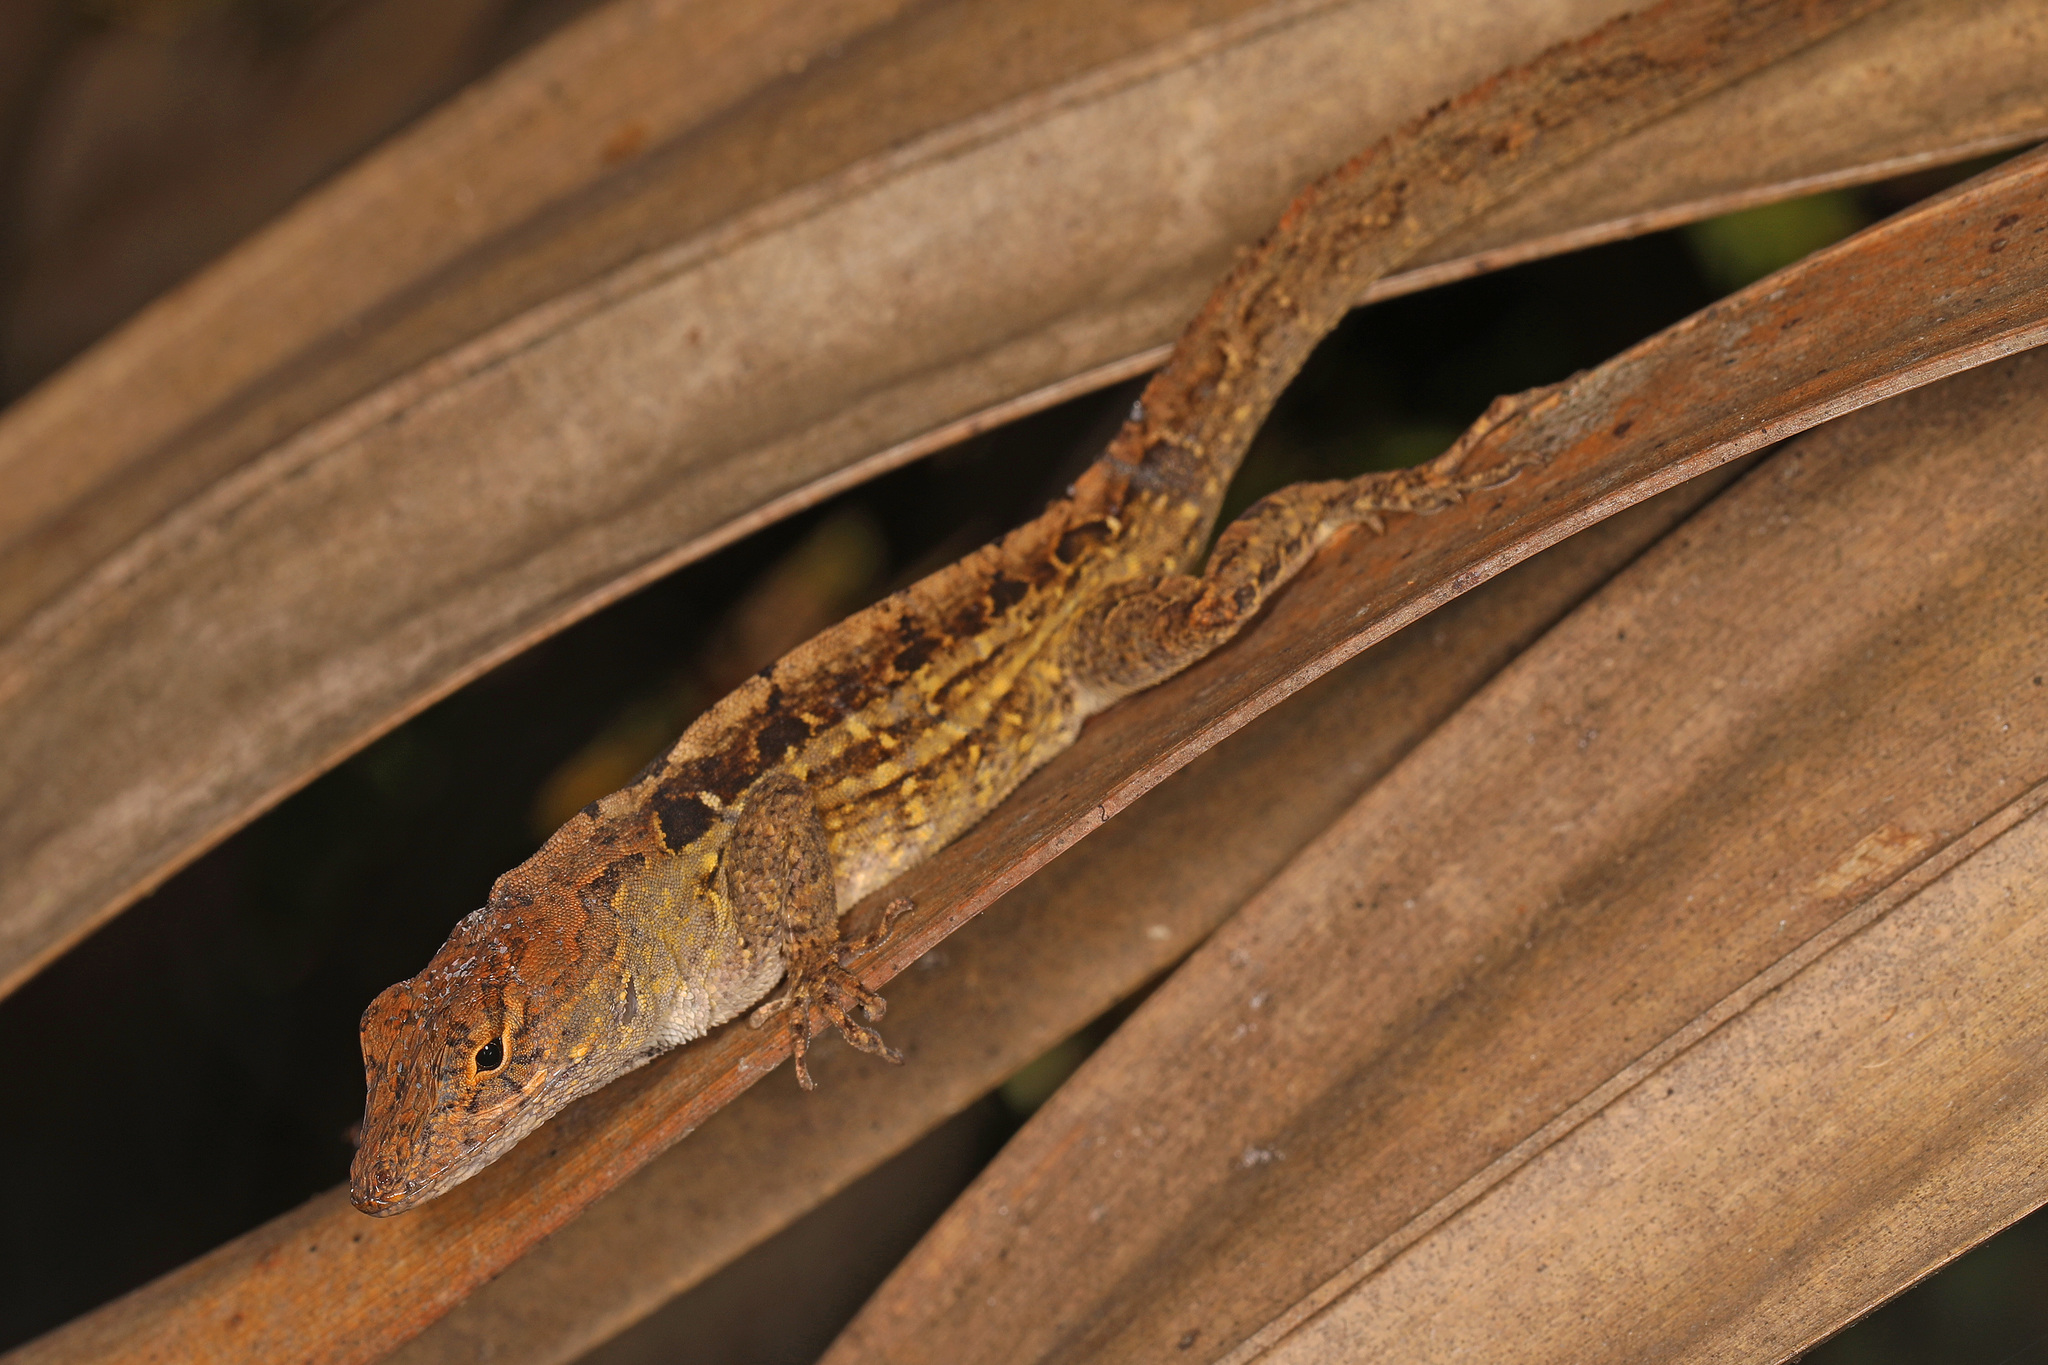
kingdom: Animalia
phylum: Chordata
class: Squamata
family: Dactyloidae
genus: Anolis
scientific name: Anolis sagrei
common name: Brown anole
